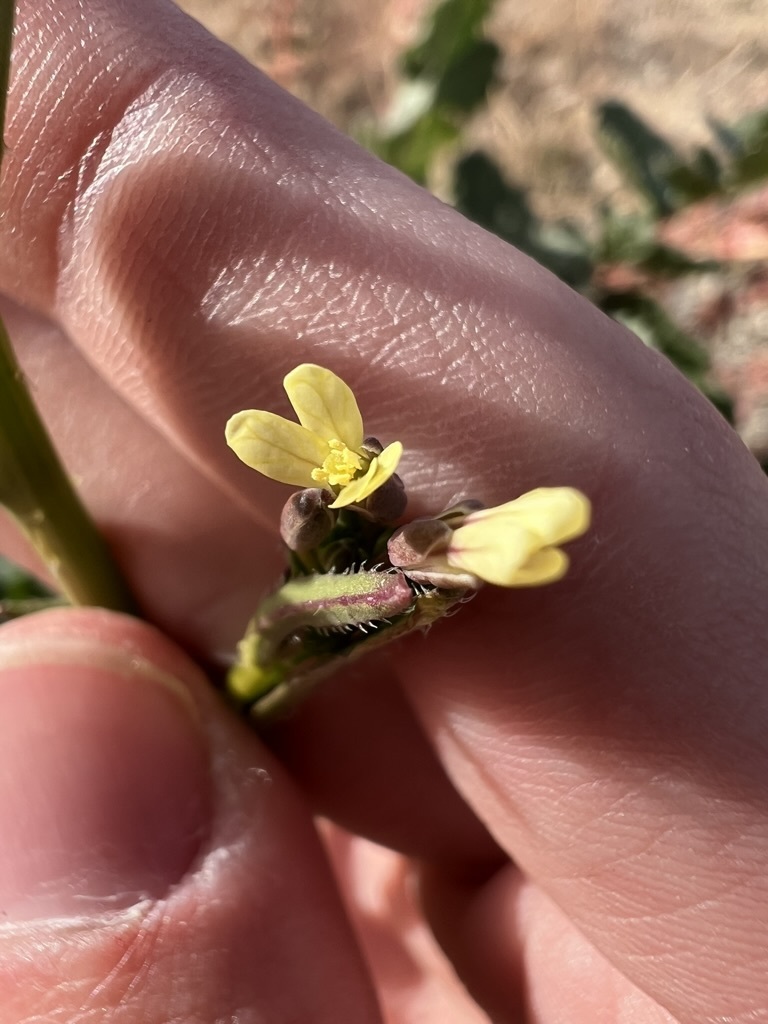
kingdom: Plantae
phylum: Tracheophyta
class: Magnoliopsida
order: Brassicales
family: Brassicaceae
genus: Brassica
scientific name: Brassica tournefortii
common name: Pale cabbage
